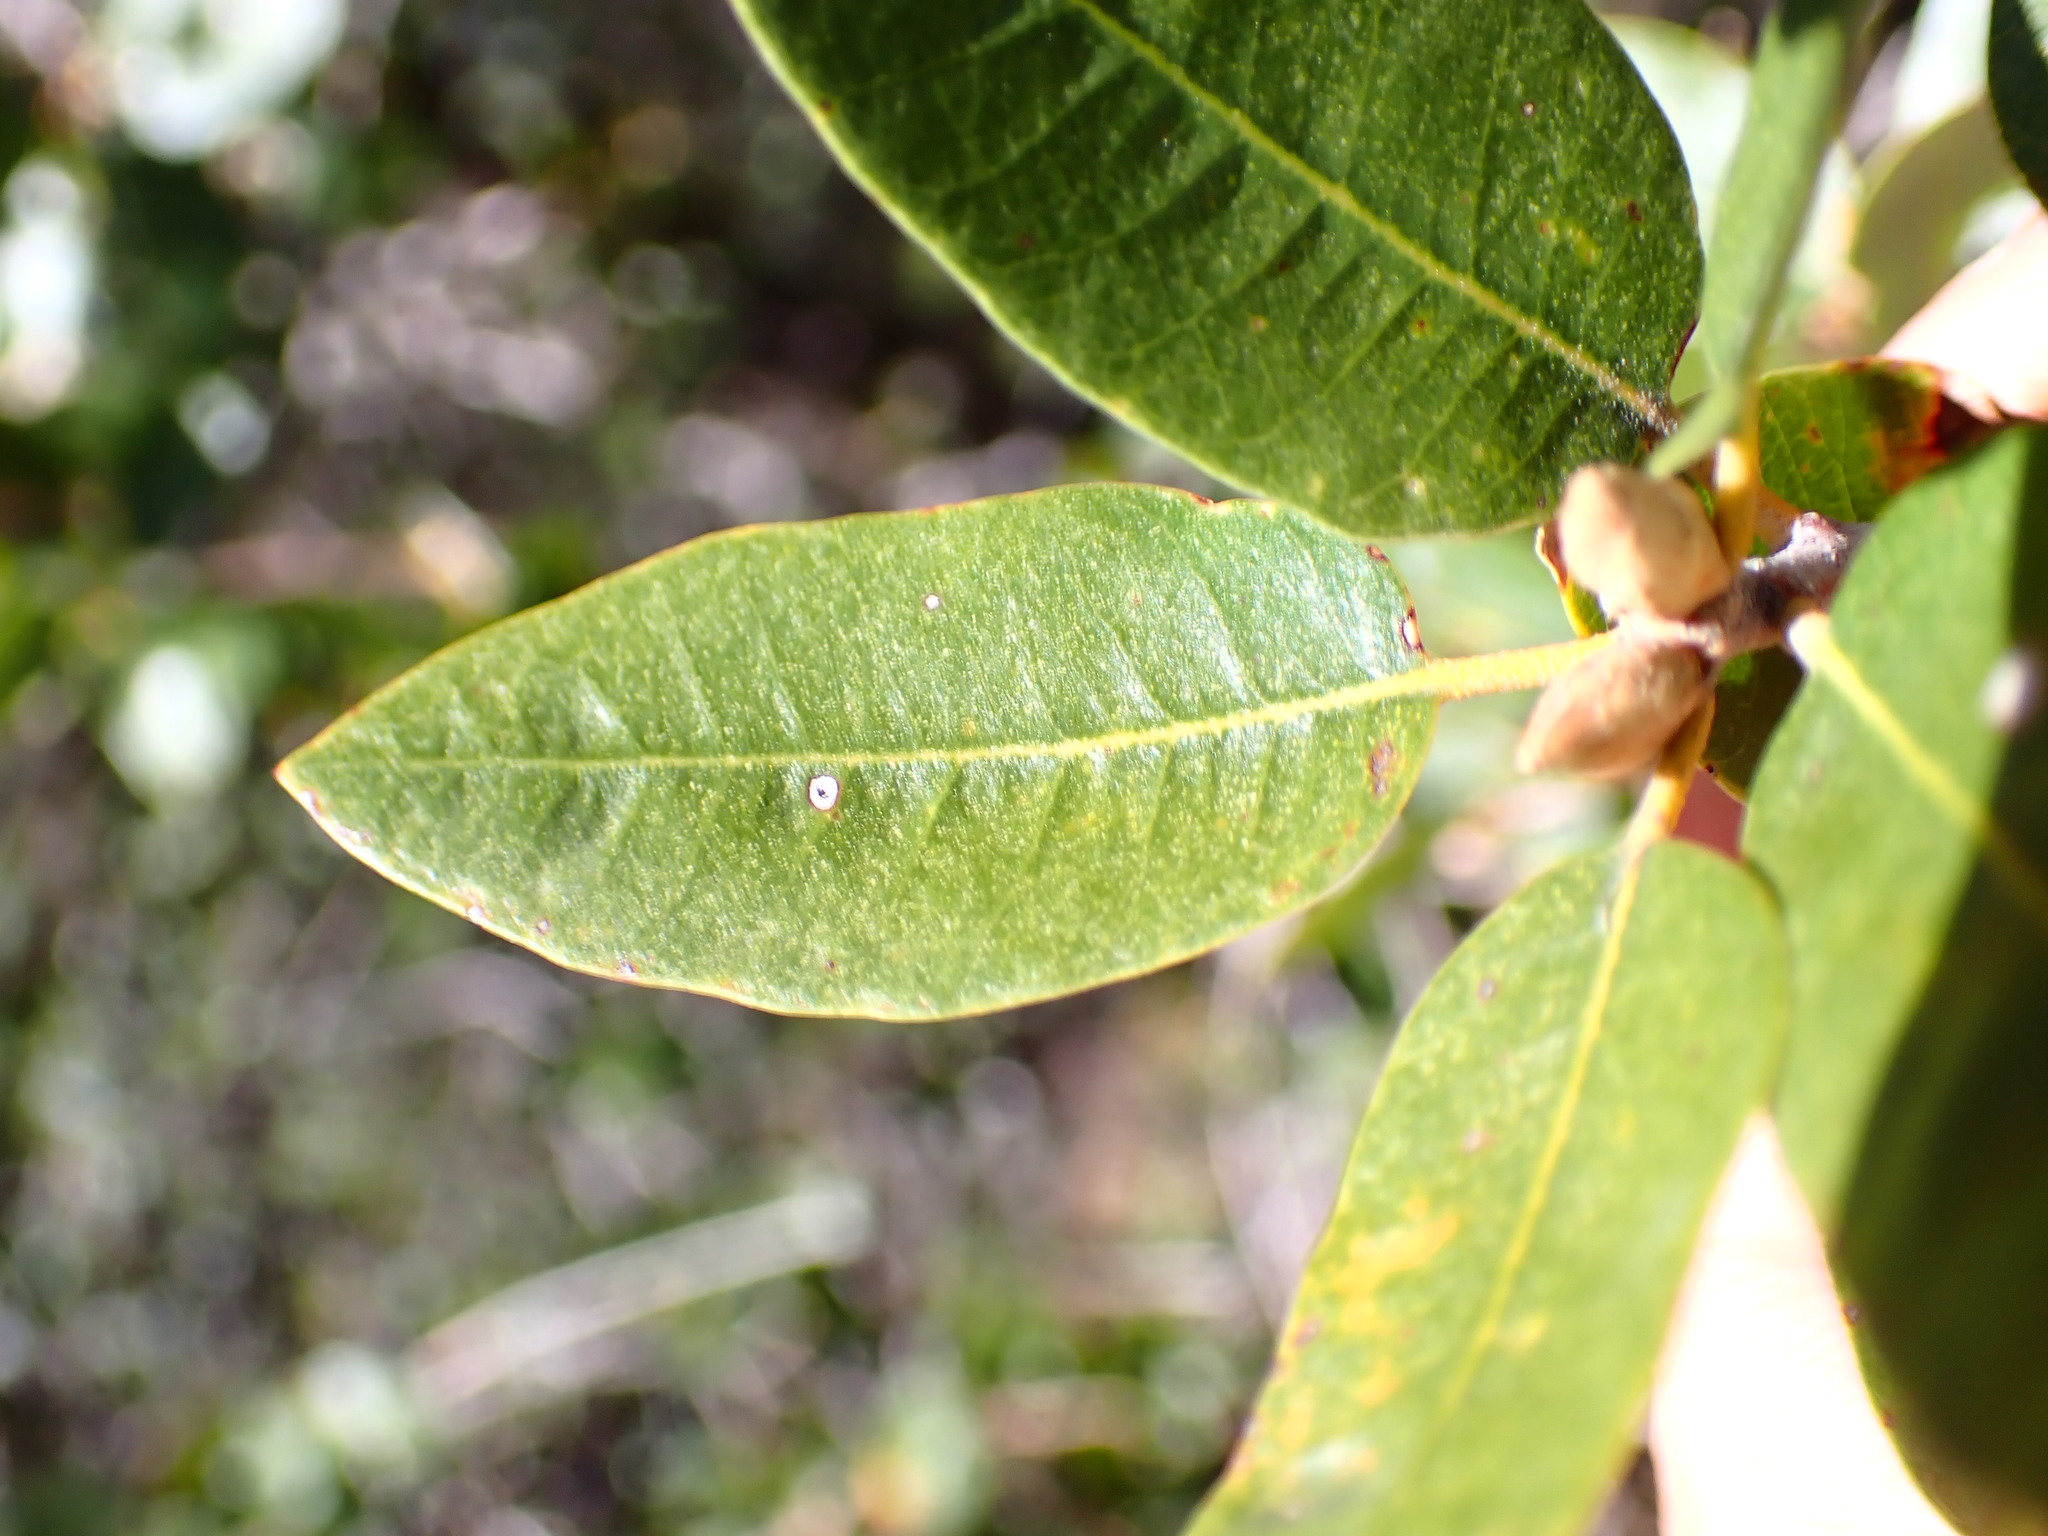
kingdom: Plantae
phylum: Tracheophyta
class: Magnoliopsida
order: Fagales
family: Fagaceae
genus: Quercus
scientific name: Quercus chrysolepis
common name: Canyon live oak
